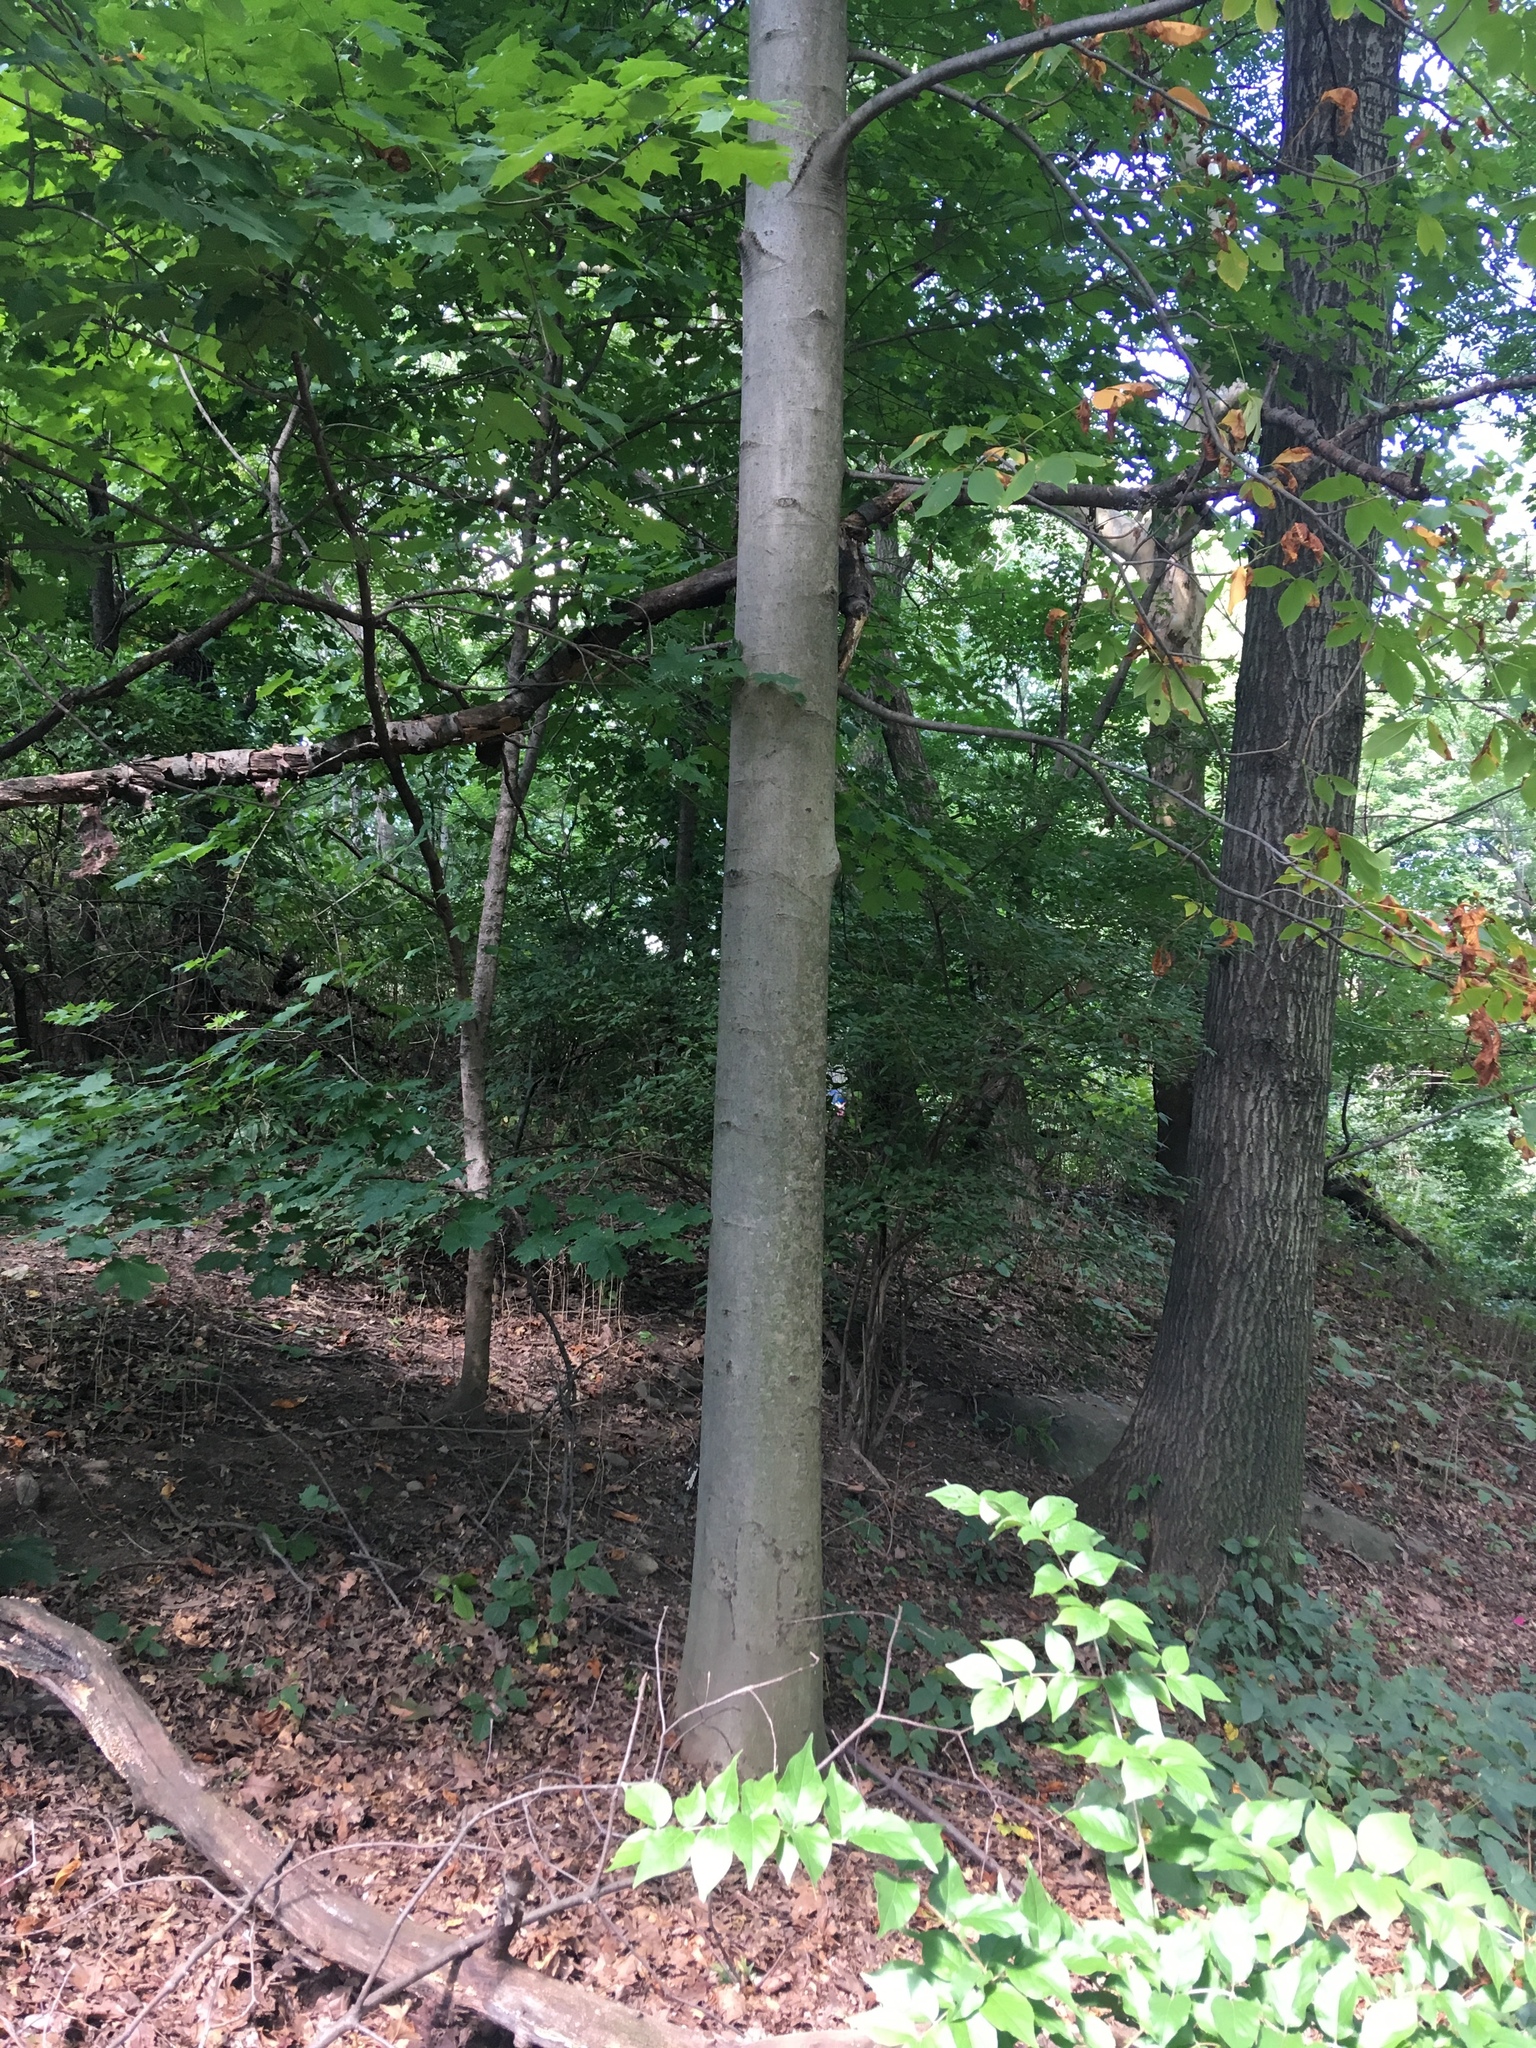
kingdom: Plantae
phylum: Tracheophyta
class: Magnoliopsida
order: Sapindales
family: Sapindaceae
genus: Aesculus
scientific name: Aesculus flava
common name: Yellow buckeye
